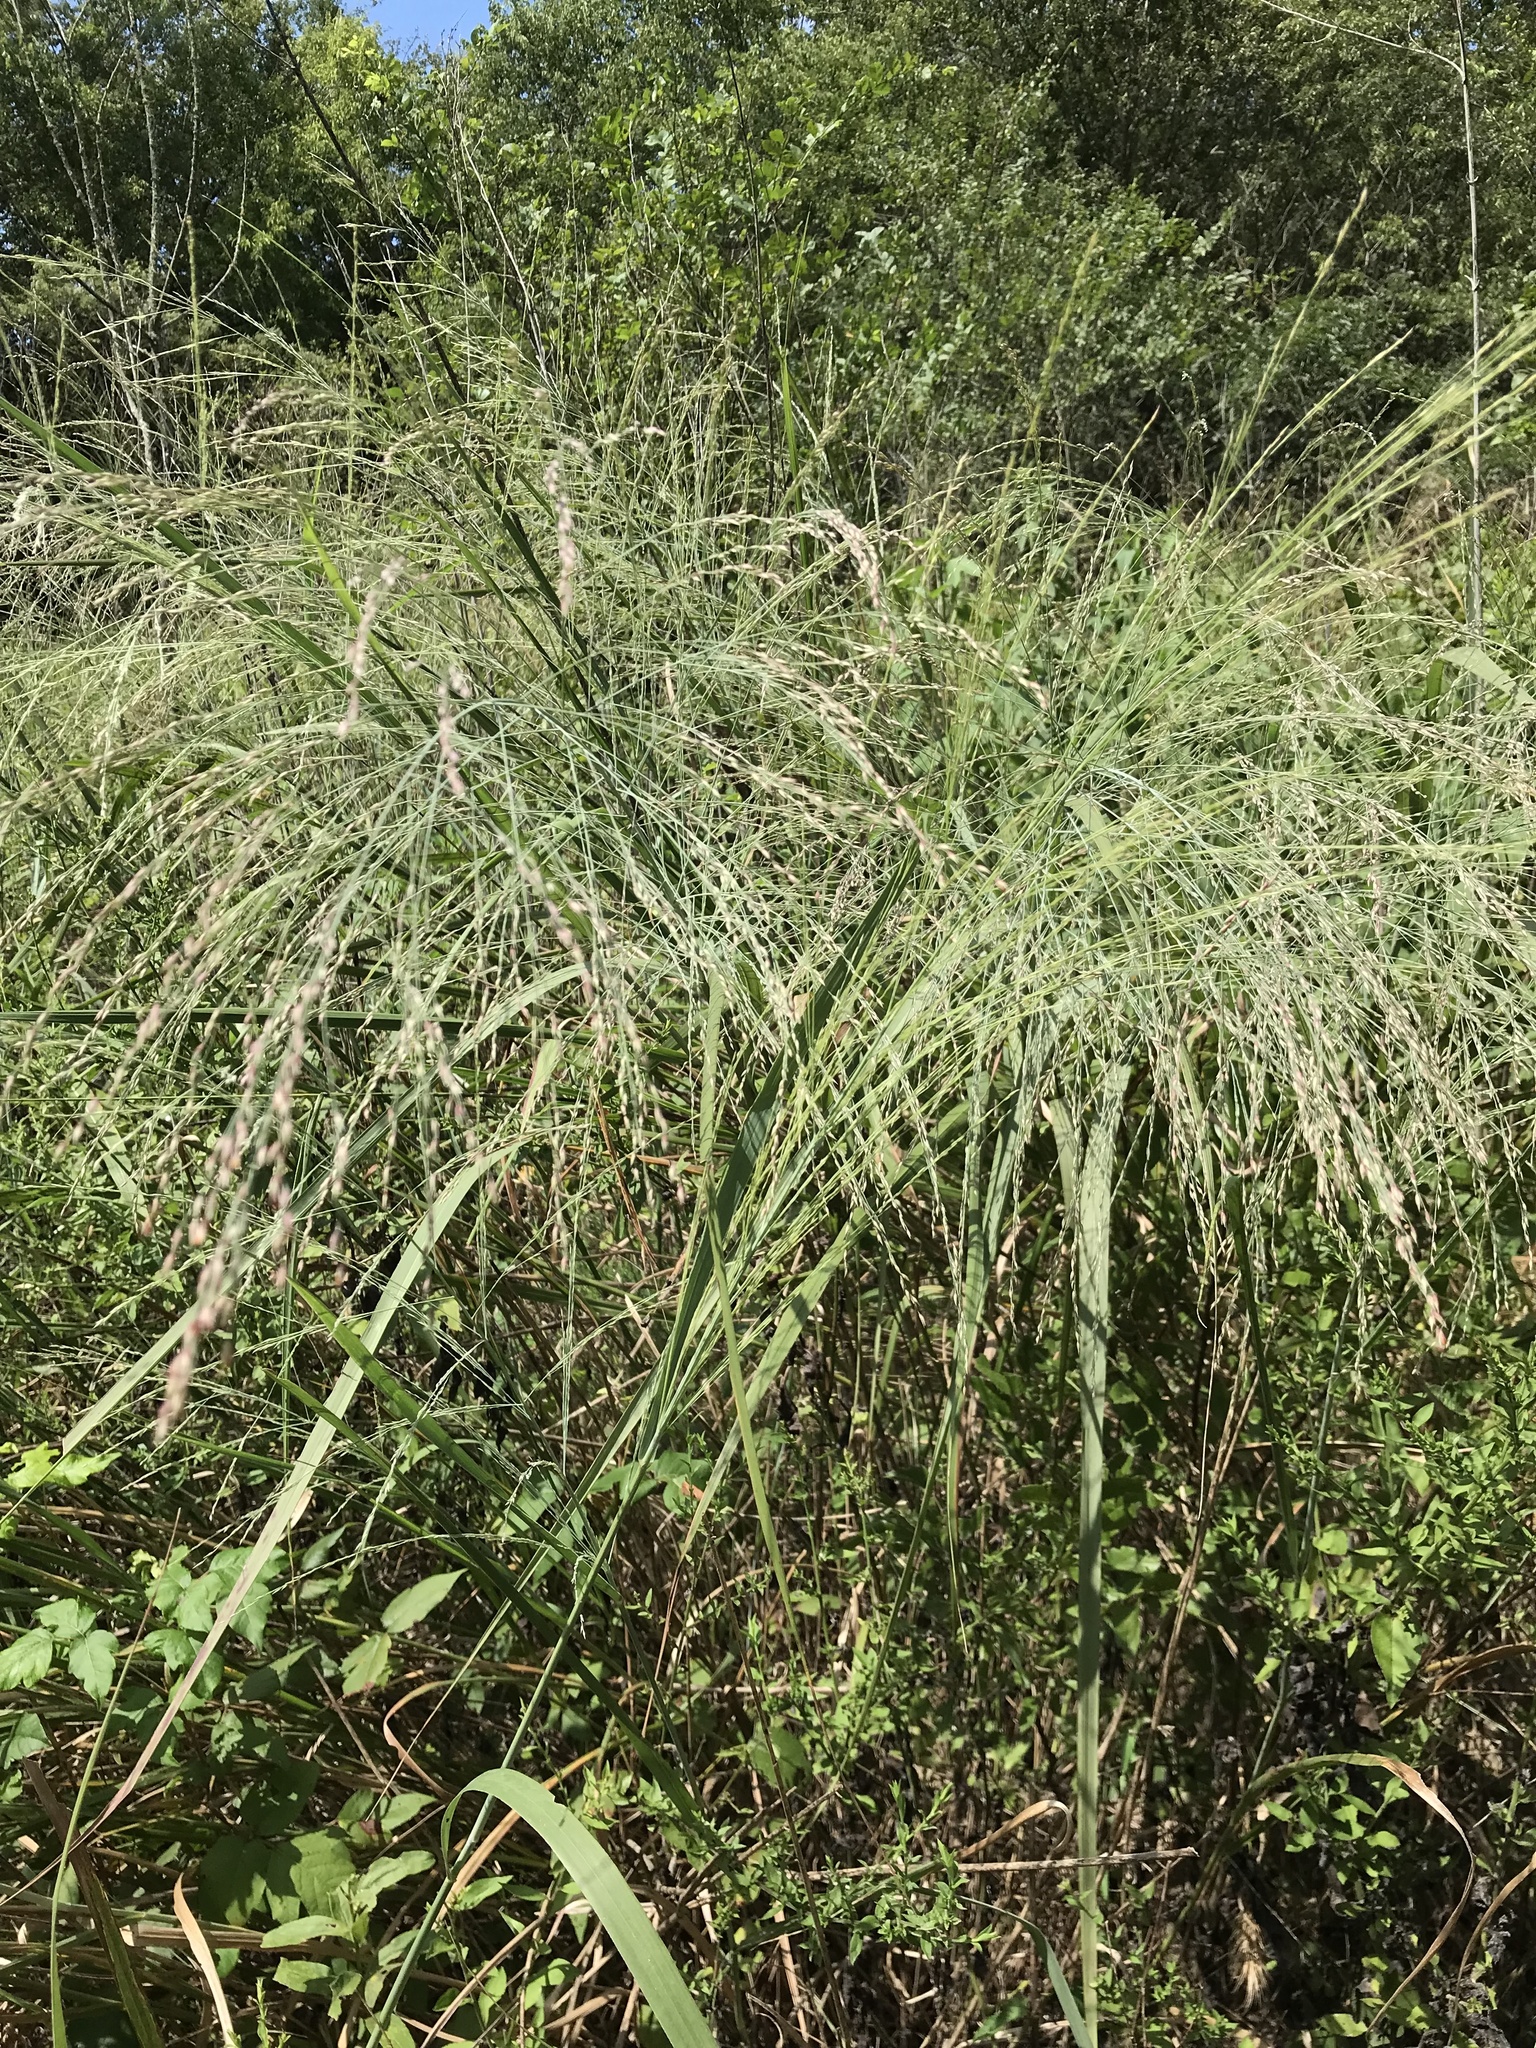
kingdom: Plantae
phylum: Tracheophyta
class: Liliopsida
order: Poales
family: Poaceae
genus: Panicum
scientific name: Panicum virgatum
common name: Switchgrass
